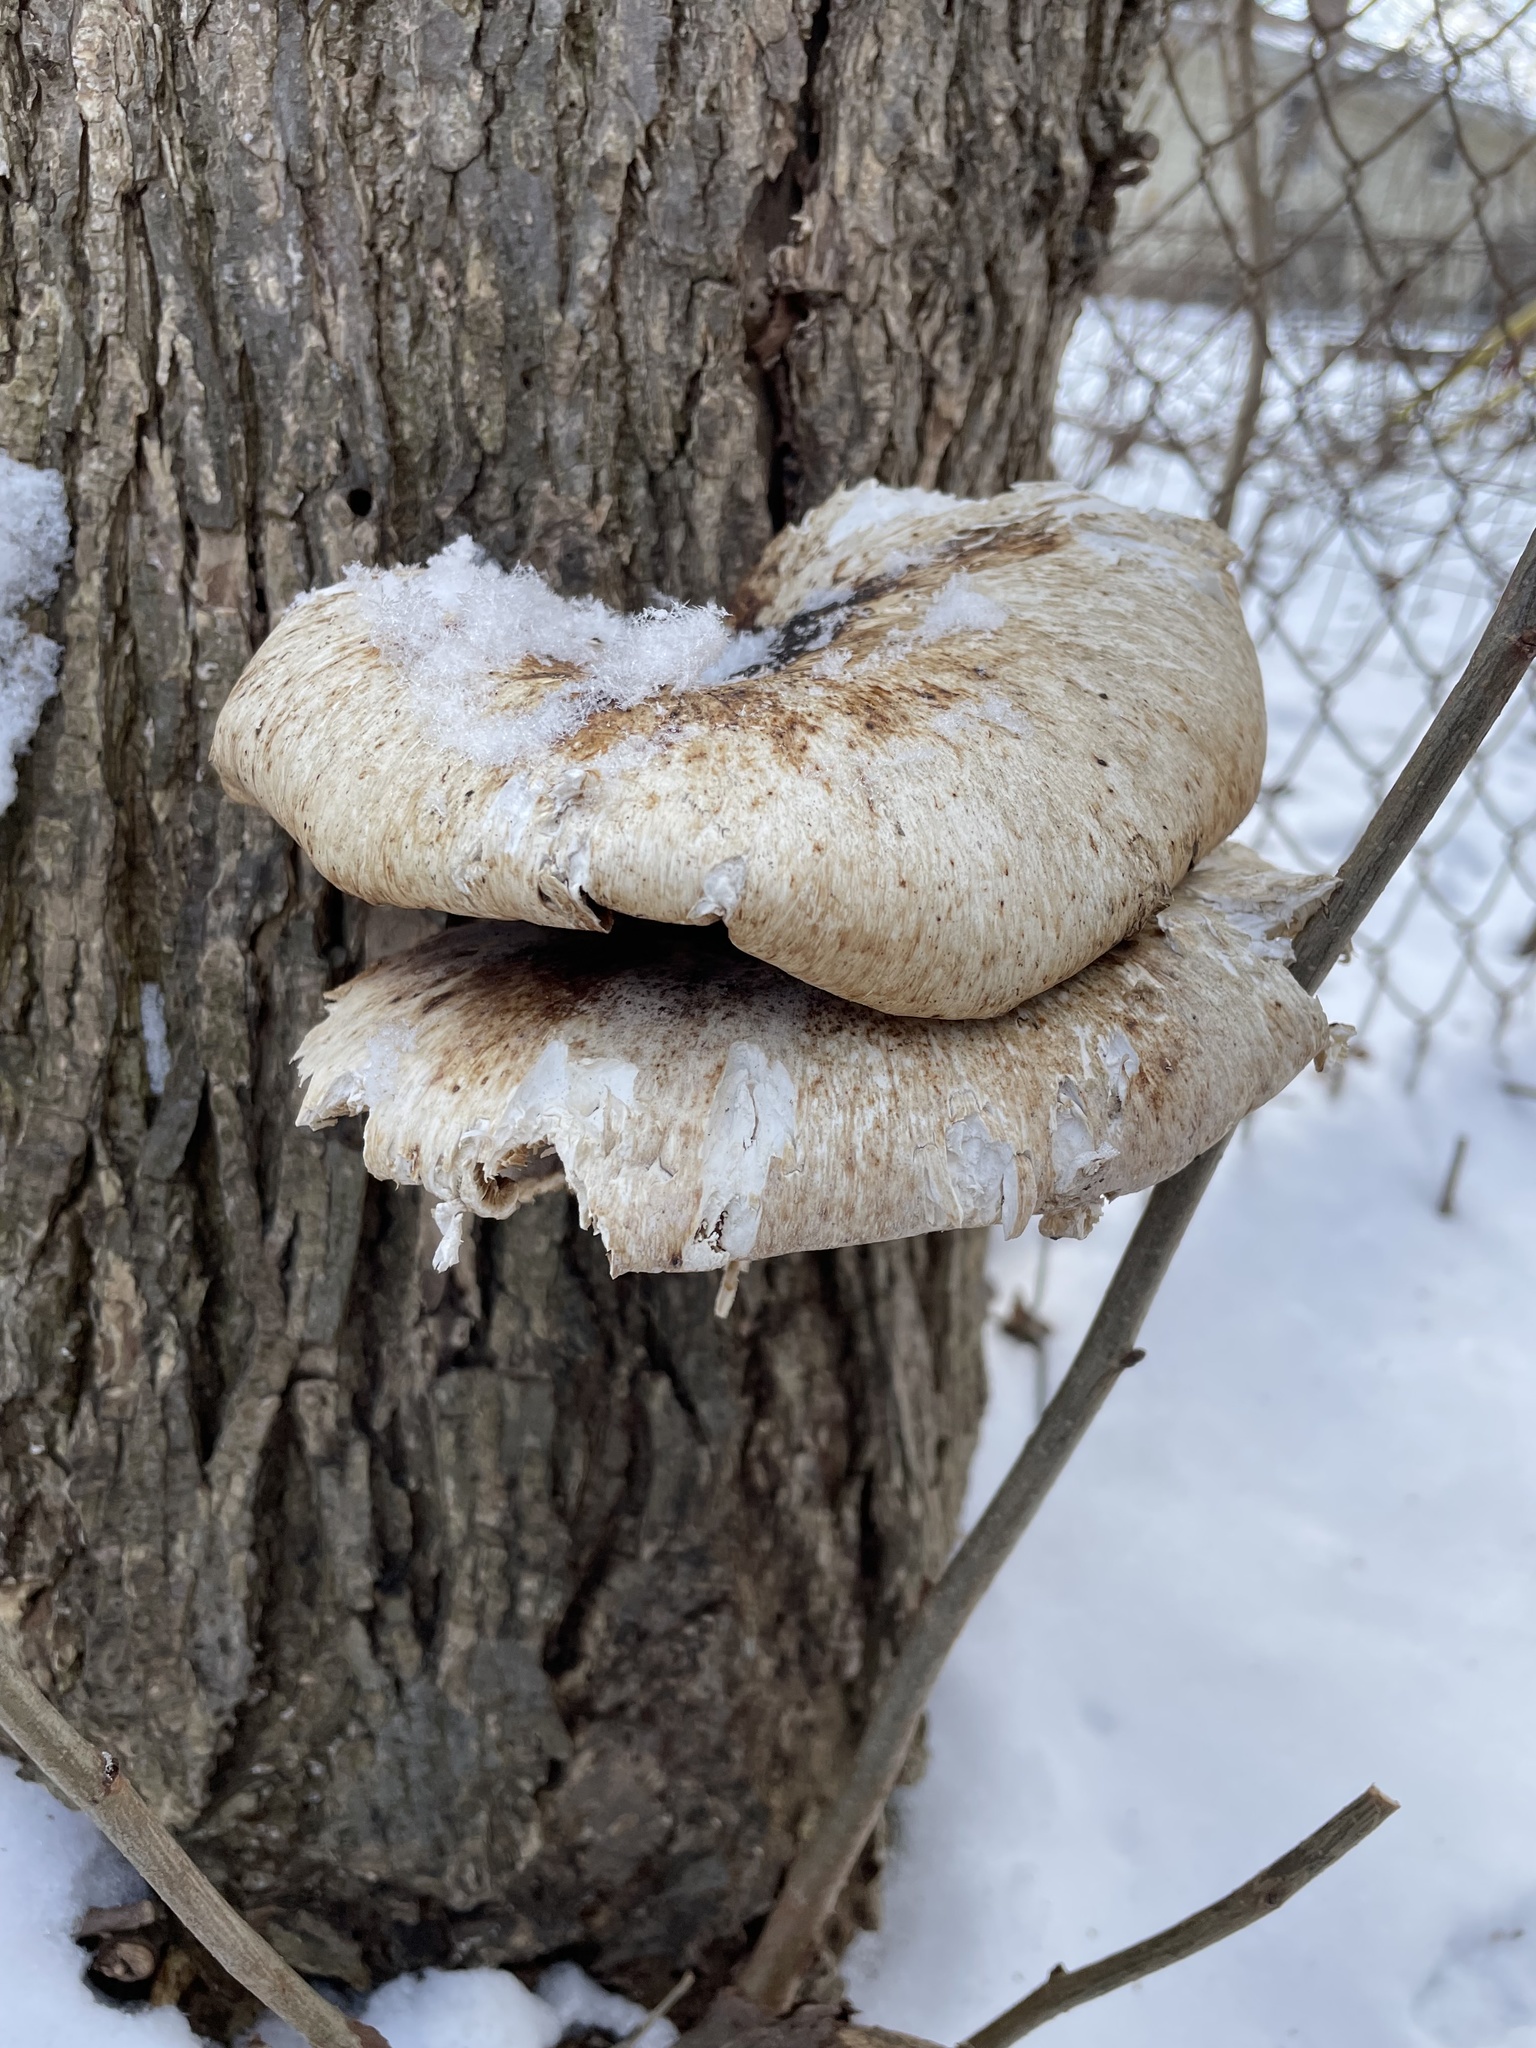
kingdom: Fungi
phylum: Basidiomycota
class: Agaricomycetes
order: Polyporales
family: Polyporaceae
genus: Cerioporus
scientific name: Cerioporus squamosus
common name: Dryad's saddle
